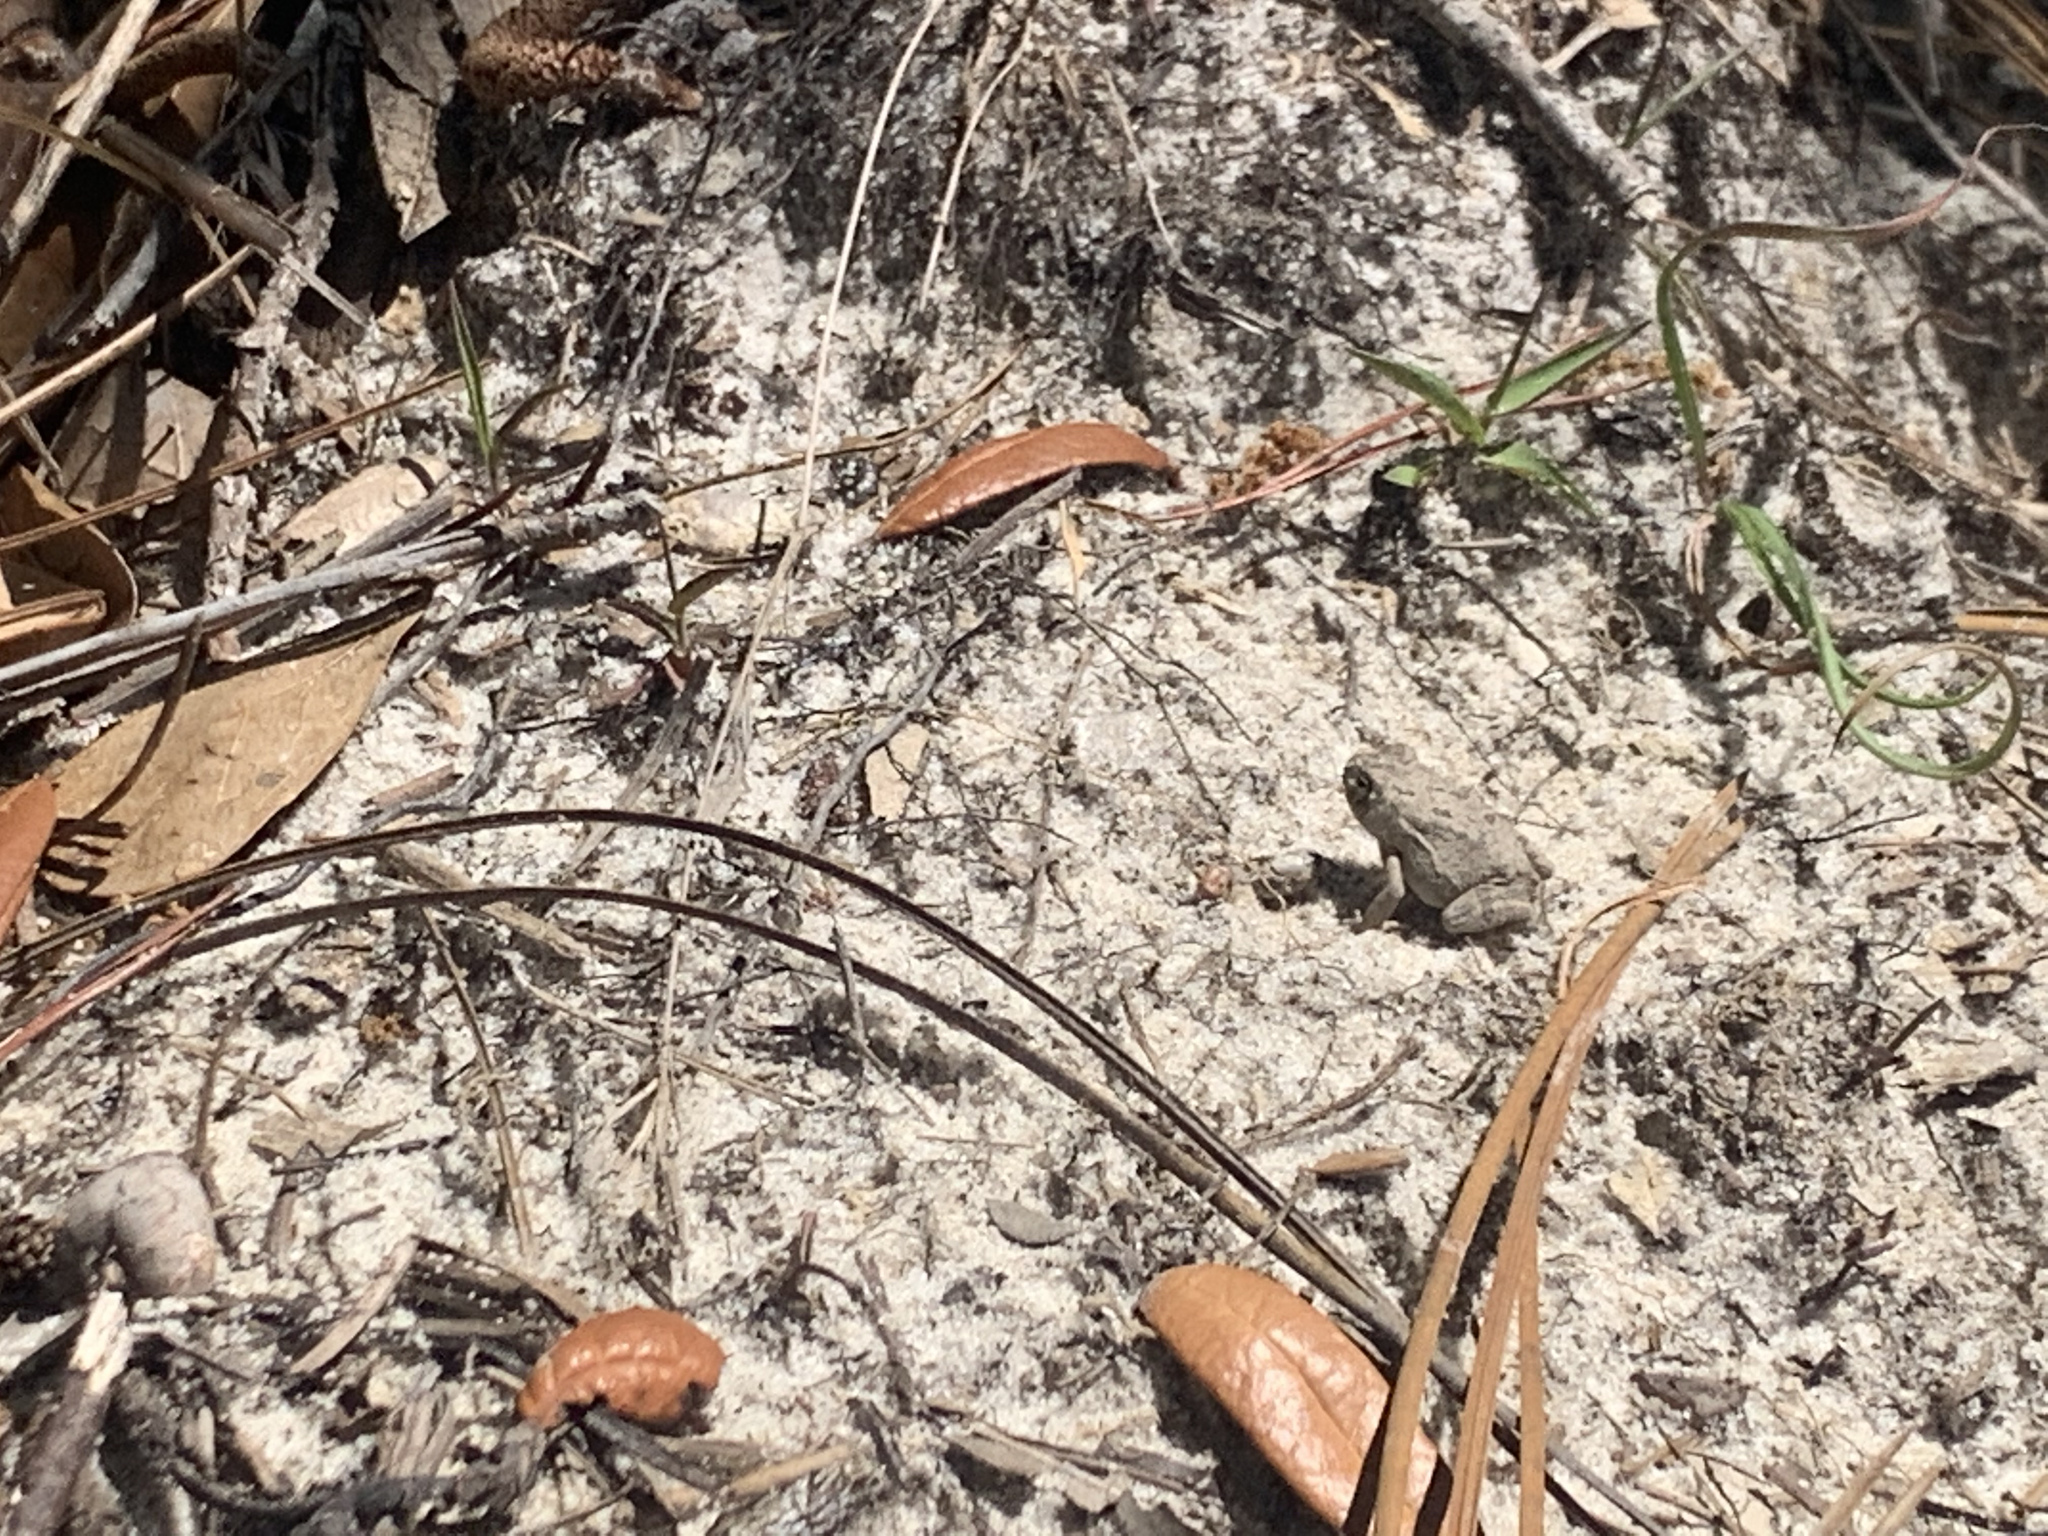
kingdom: Animalia
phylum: Chordata
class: Amphibia
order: Anura
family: Bufonidae
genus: Anaxyrus
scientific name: Anaxyrus
